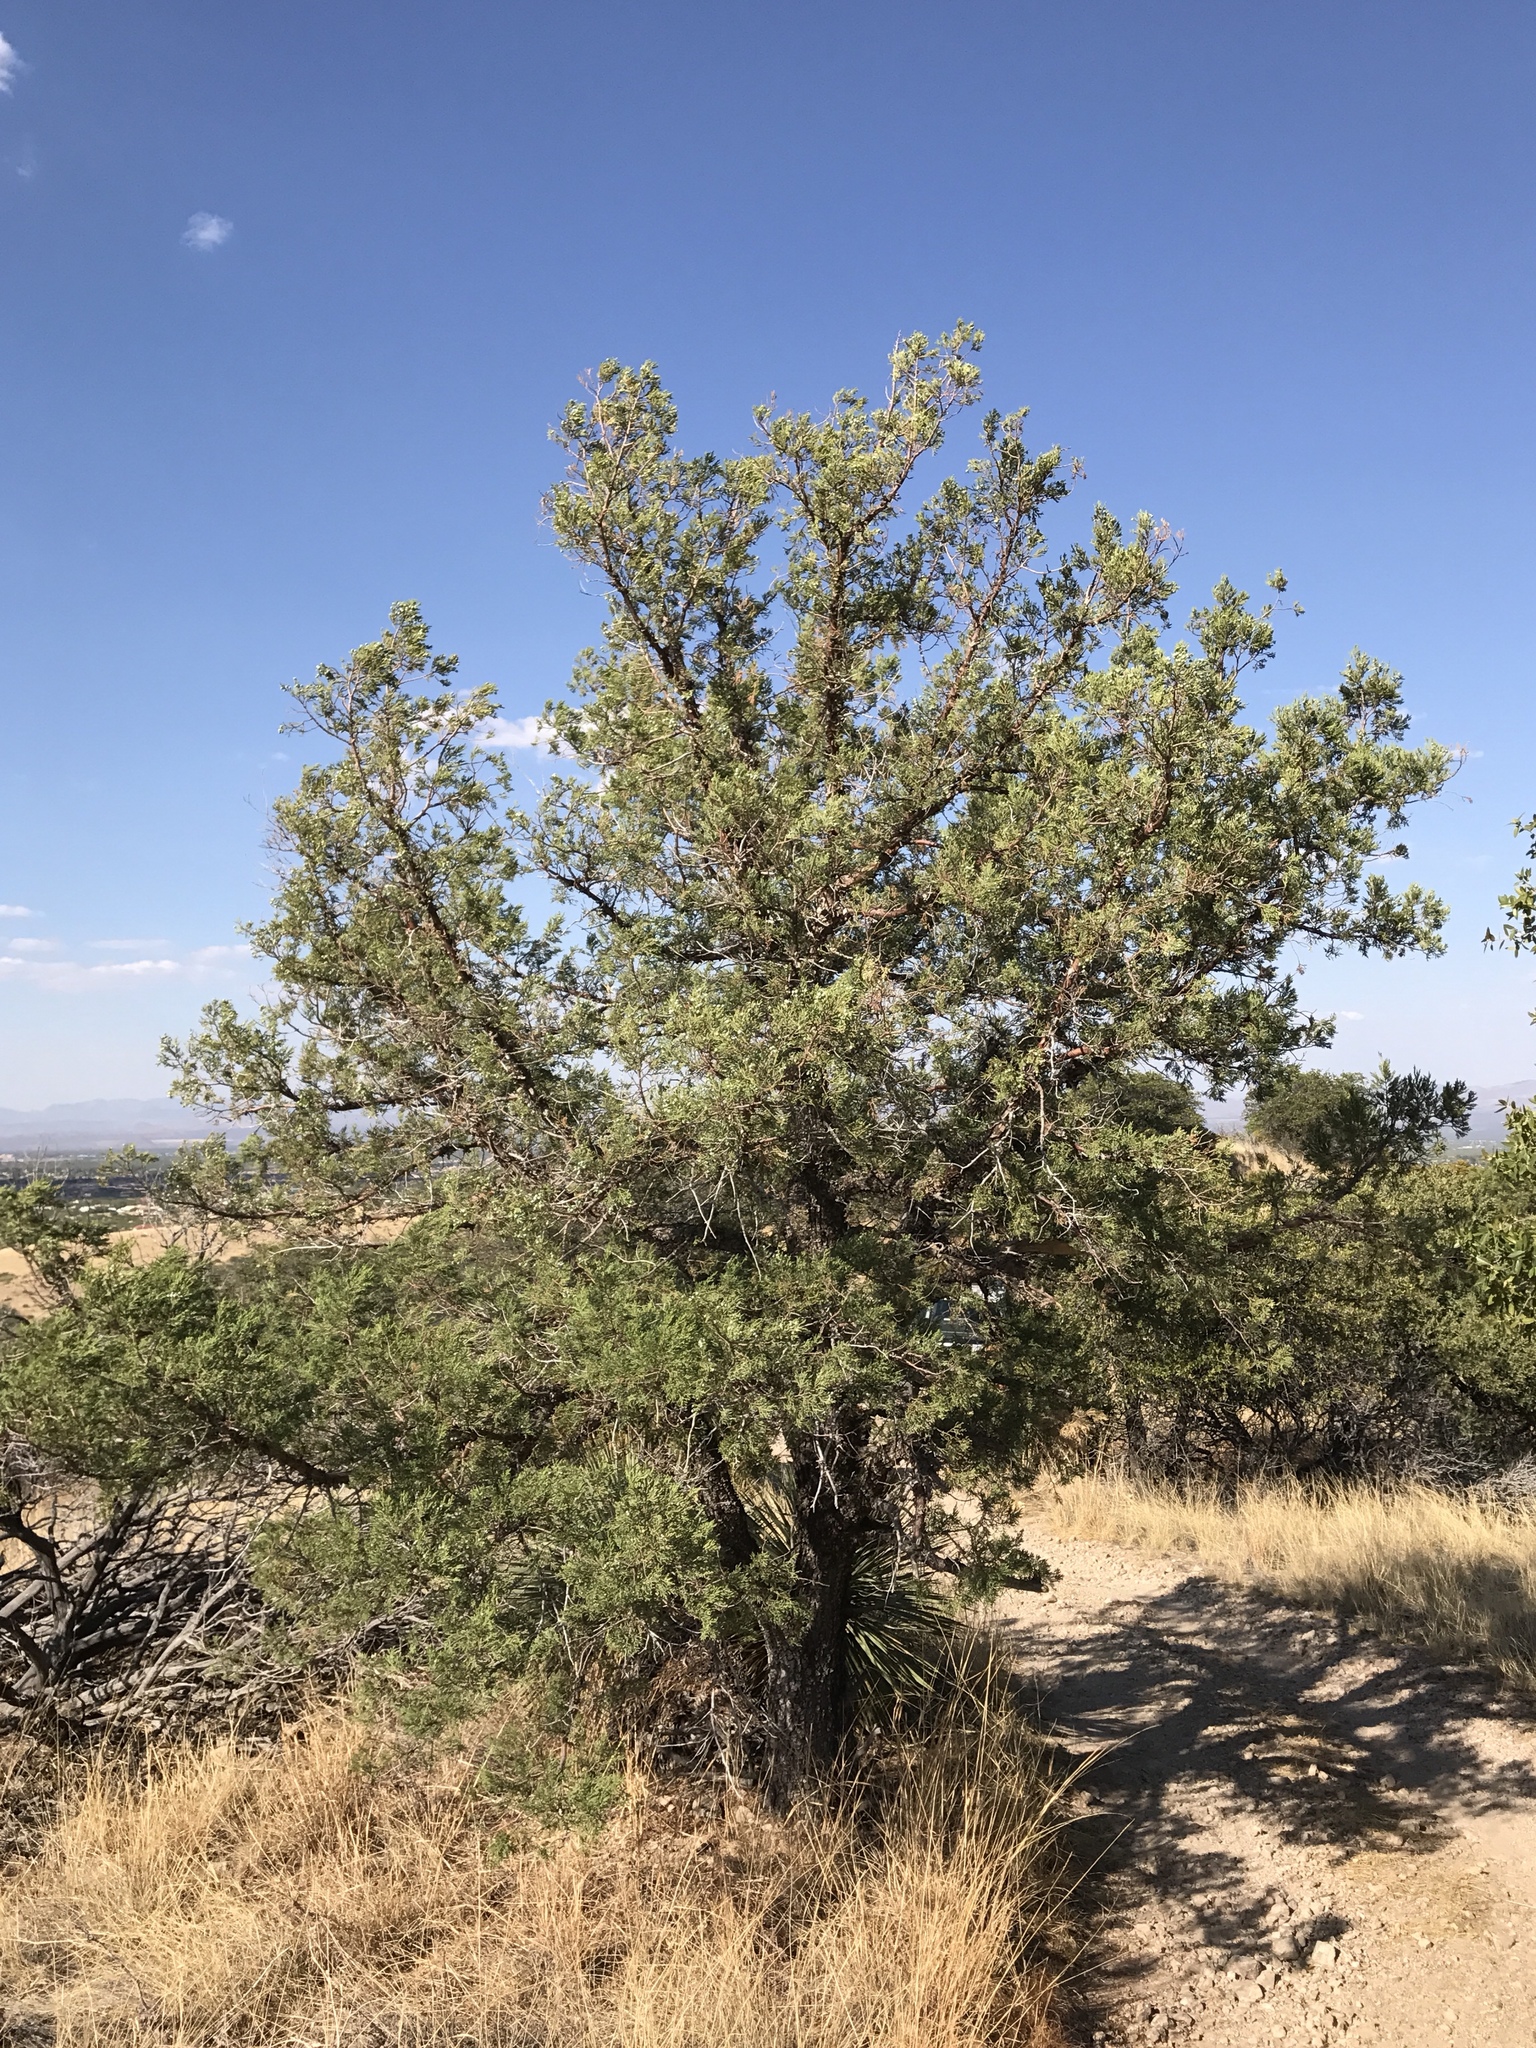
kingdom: Plantae
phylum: Tracheophyta
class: Pinopsida
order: Pinales
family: Cupressaceae
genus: Juniperus
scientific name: Juniperus deppeana
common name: Alligator juniper
